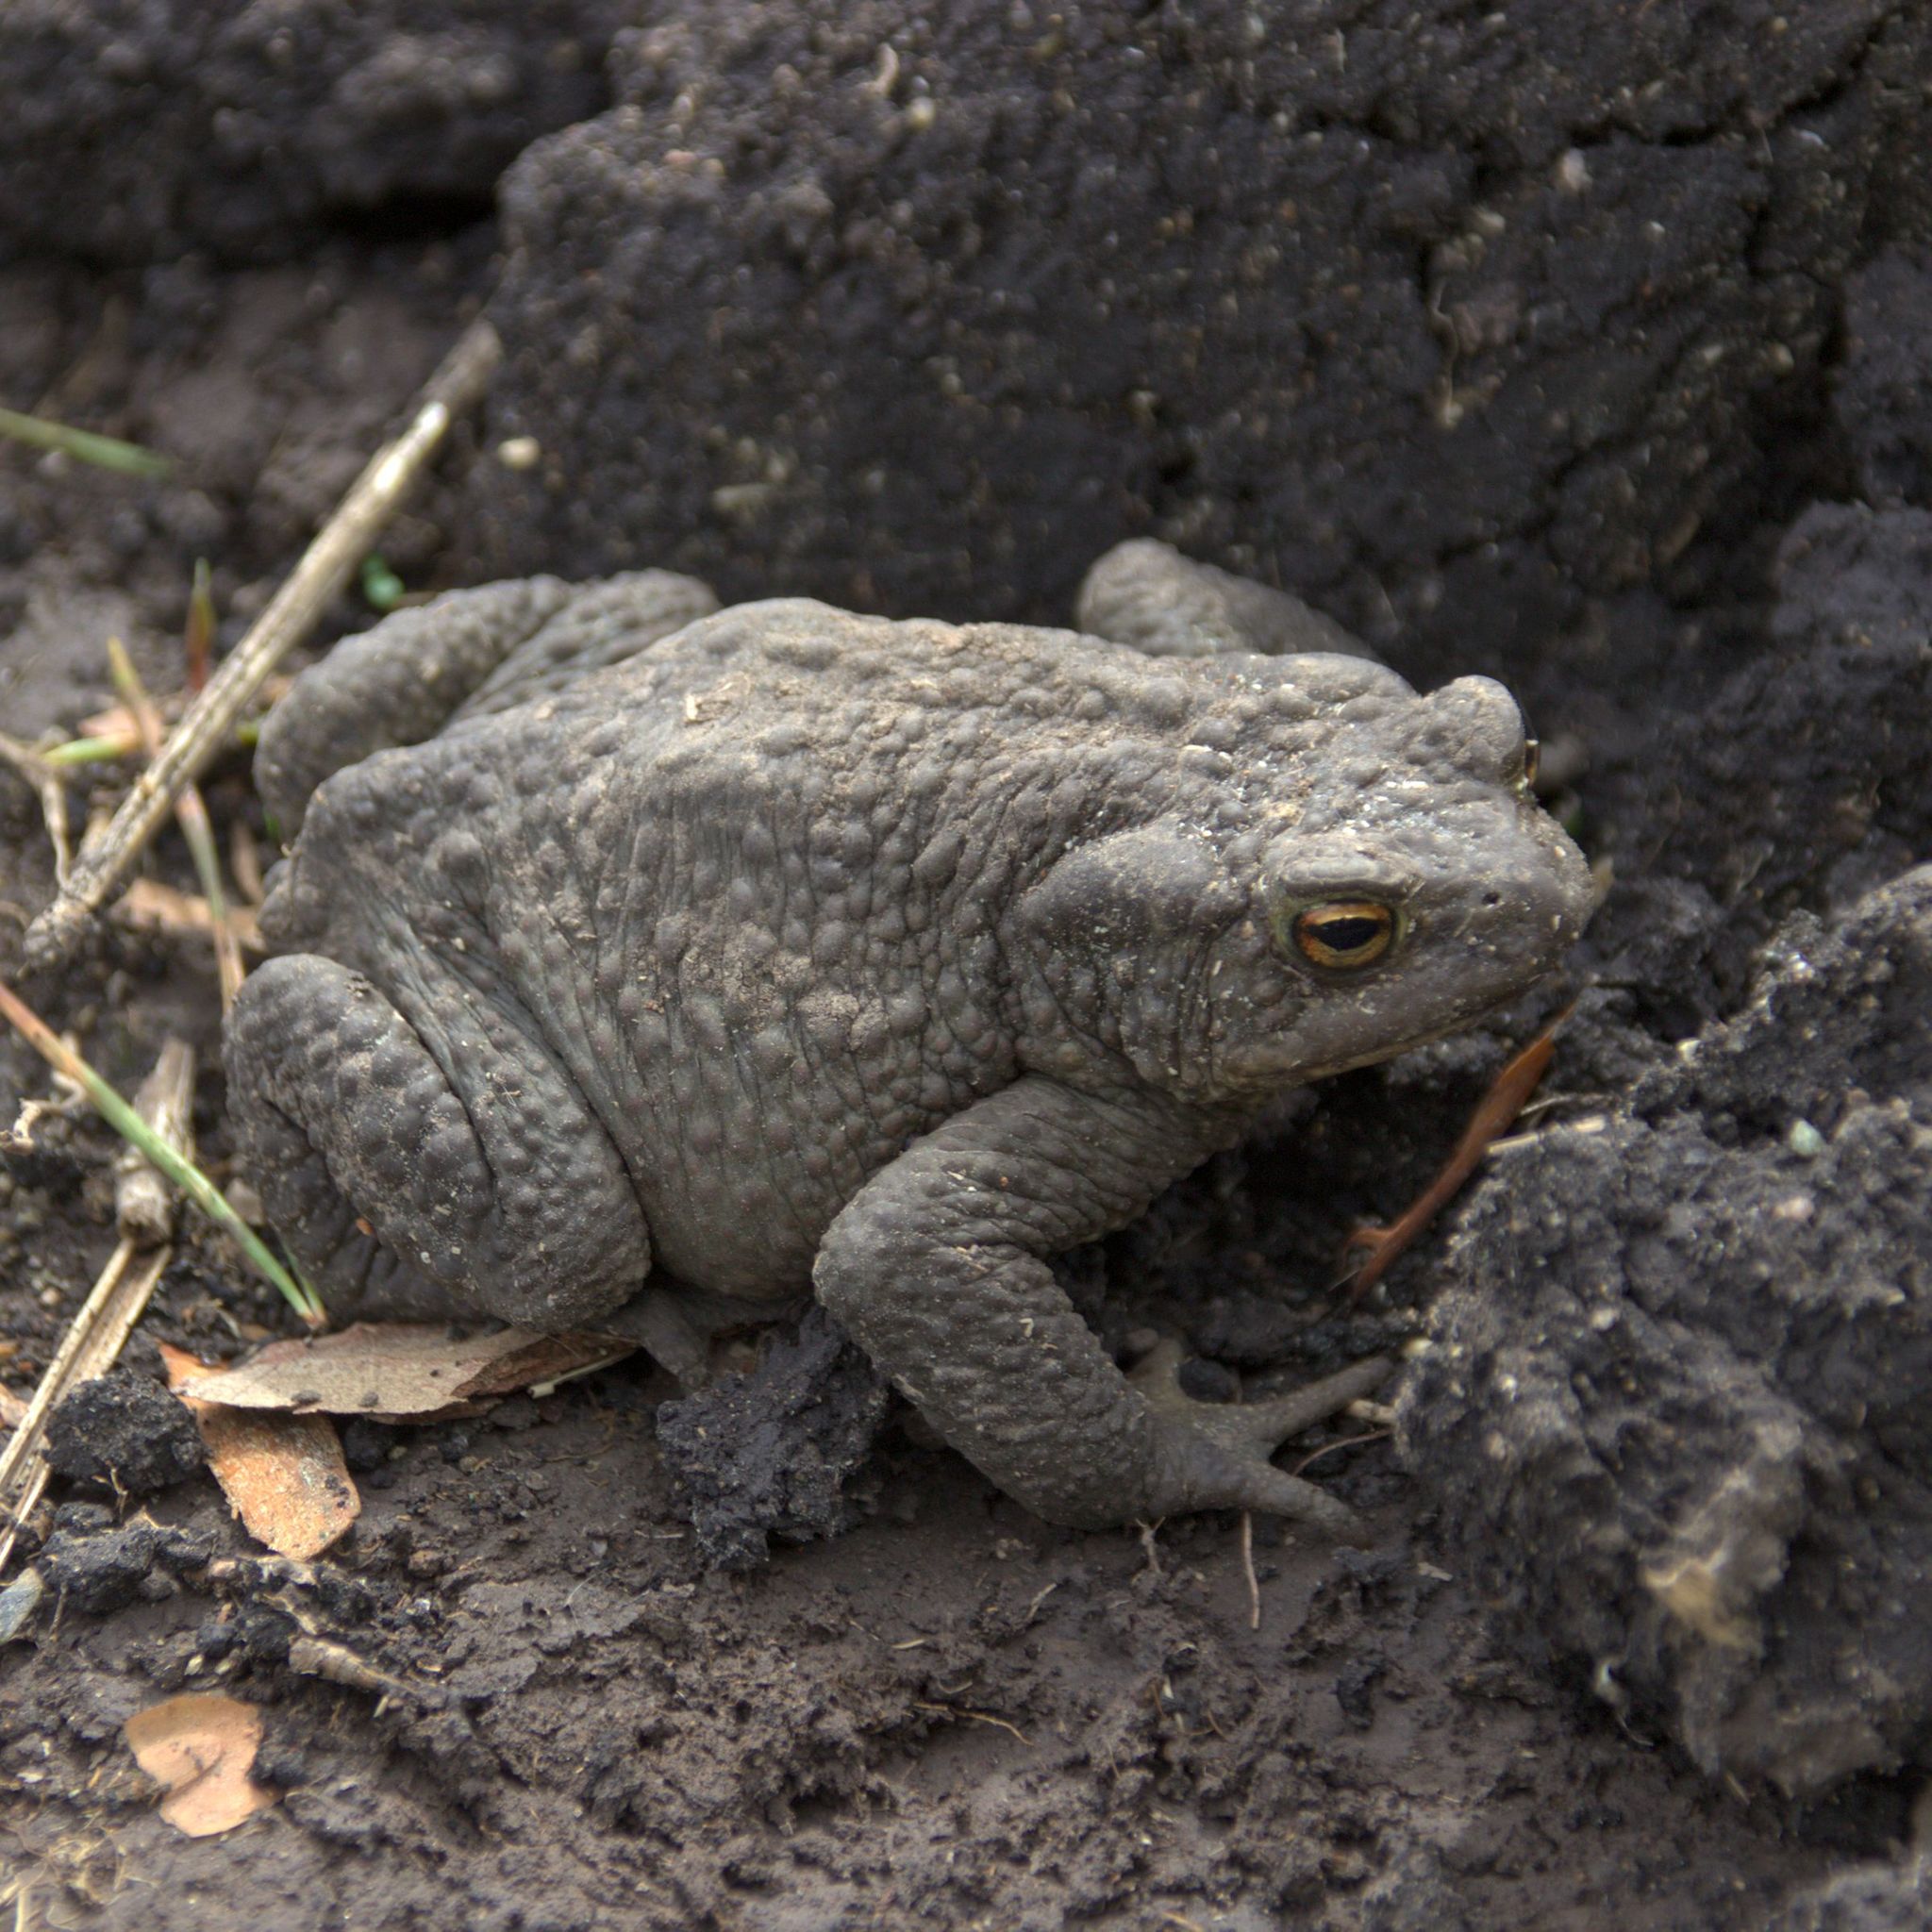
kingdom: Animalia
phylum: Chordata
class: Amphibia
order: Anura
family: Bufonidae
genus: Bufo
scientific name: Bufo bufo
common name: Common toad
